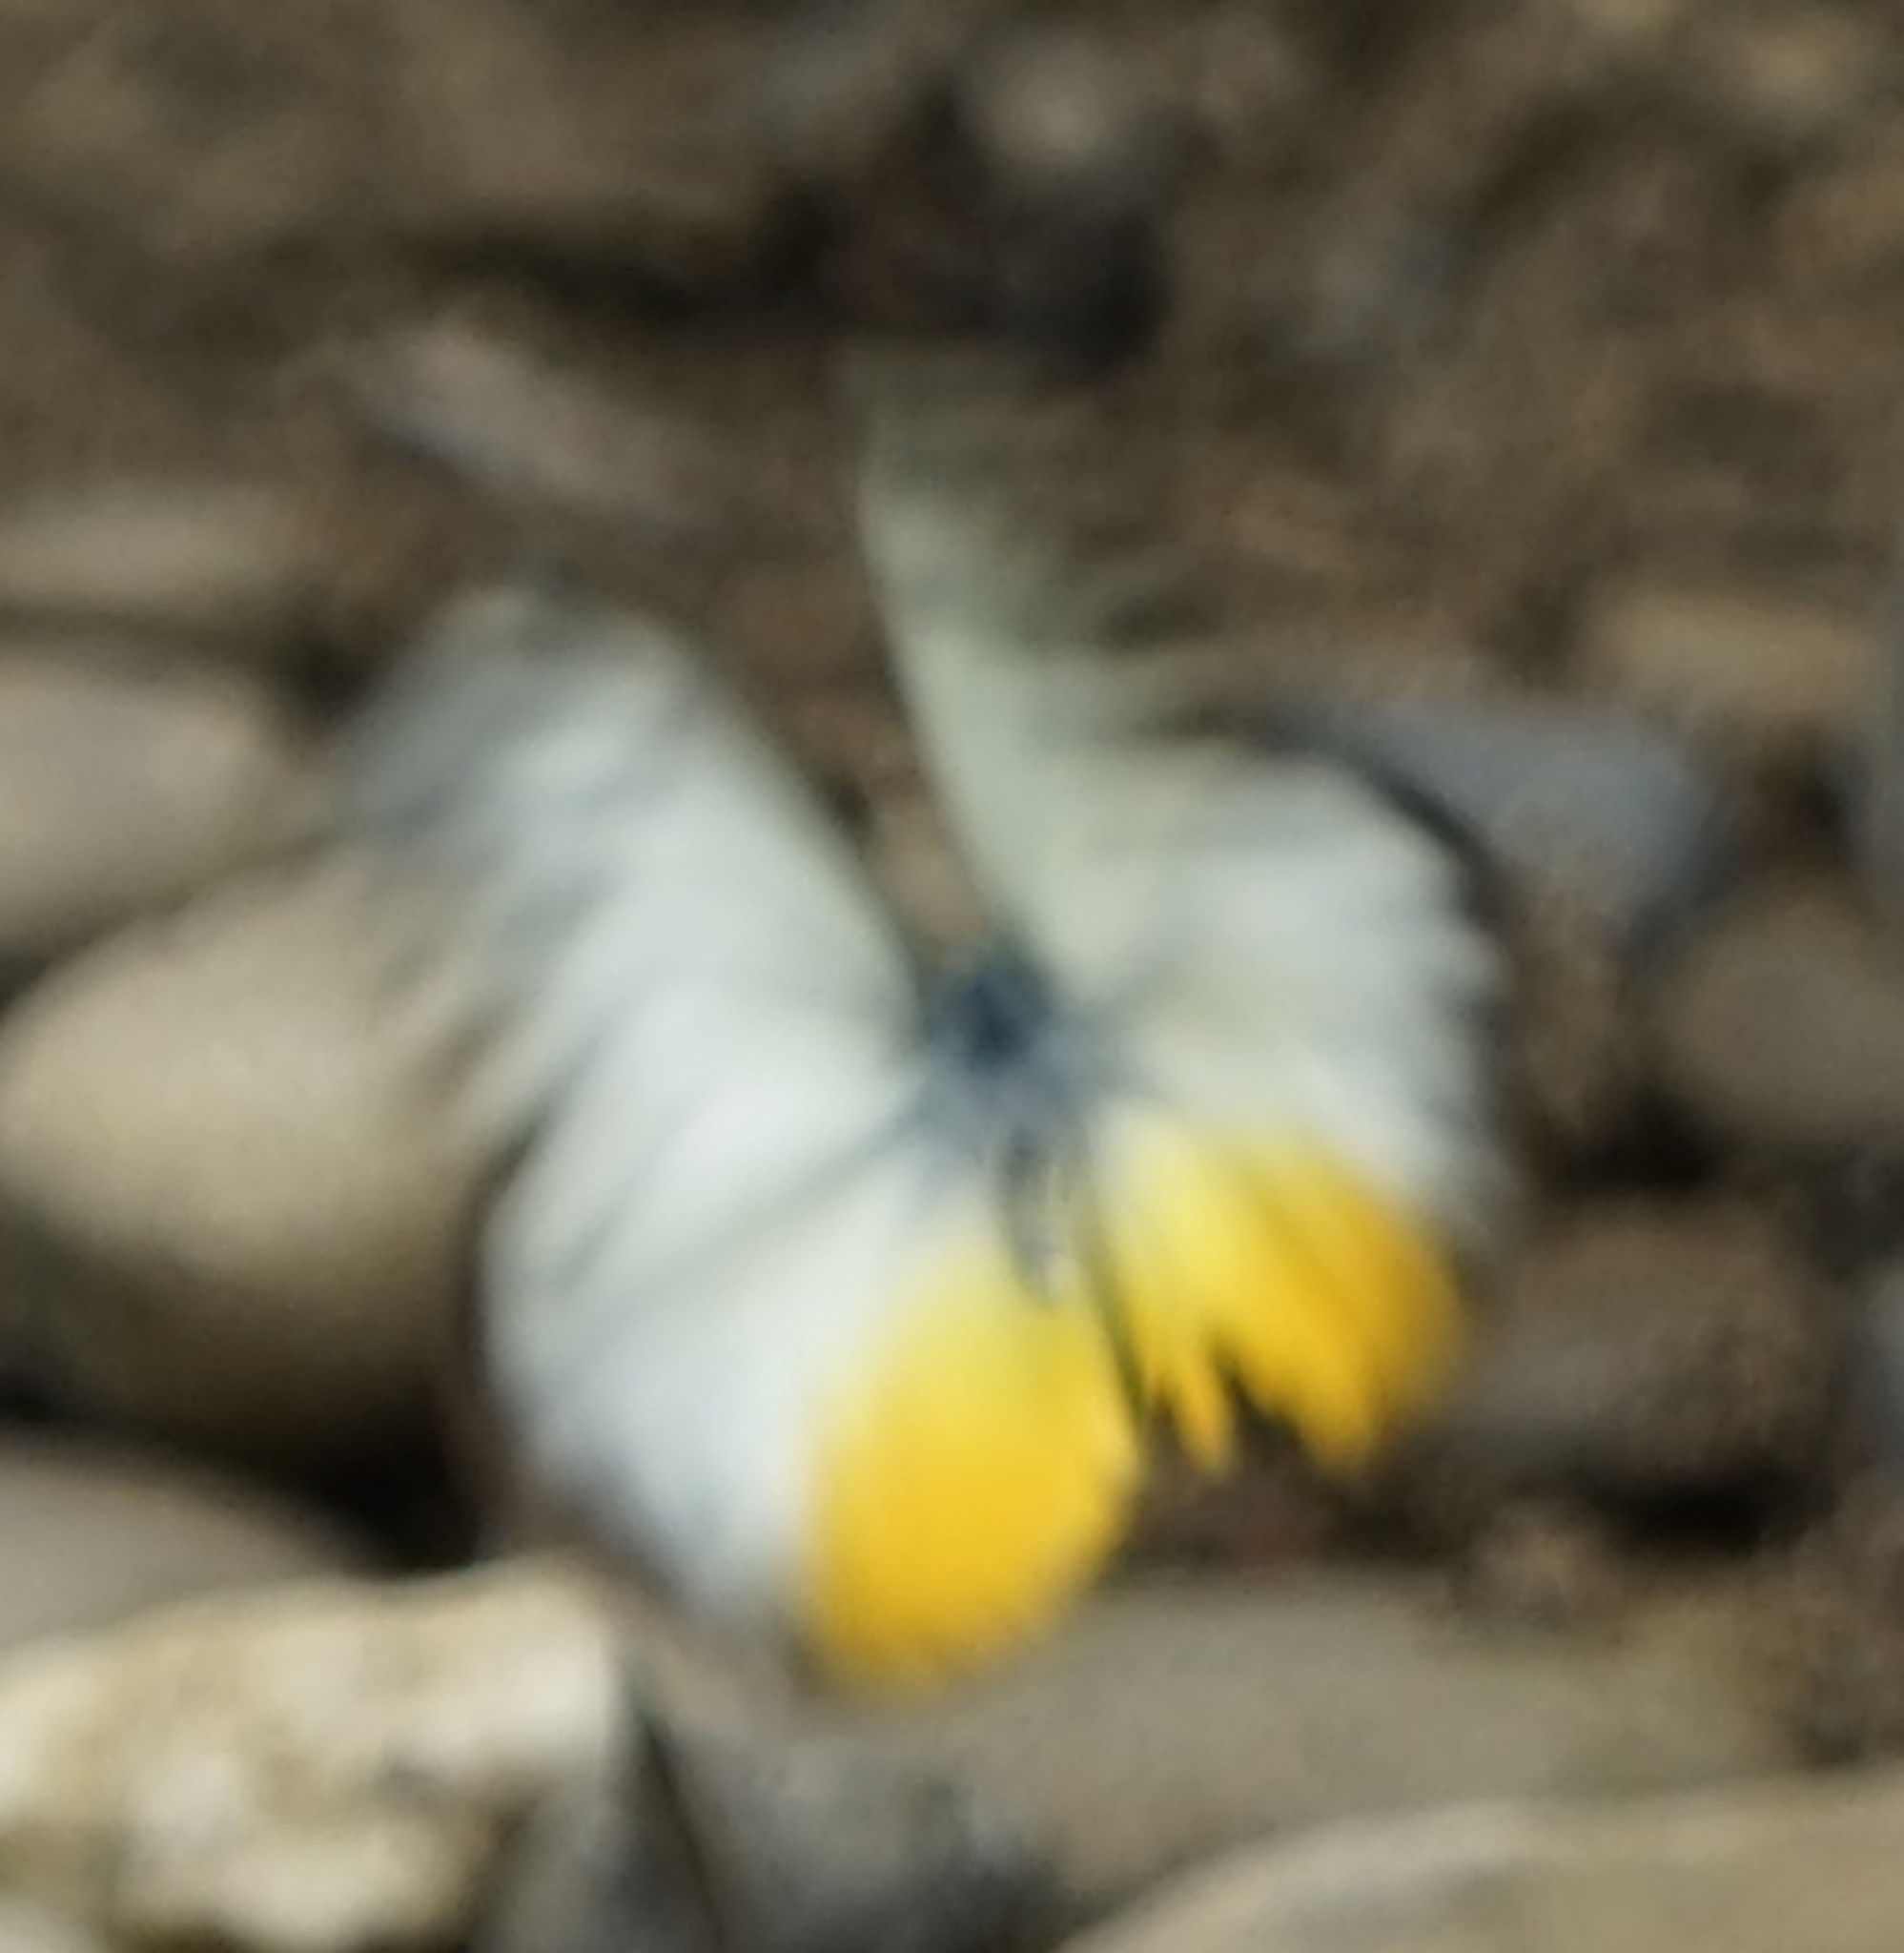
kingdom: Animalia
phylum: Arthropoda
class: Insecta
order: Lepidoptera
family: Pieridae
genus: Cepora
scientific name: Cepora iudith
